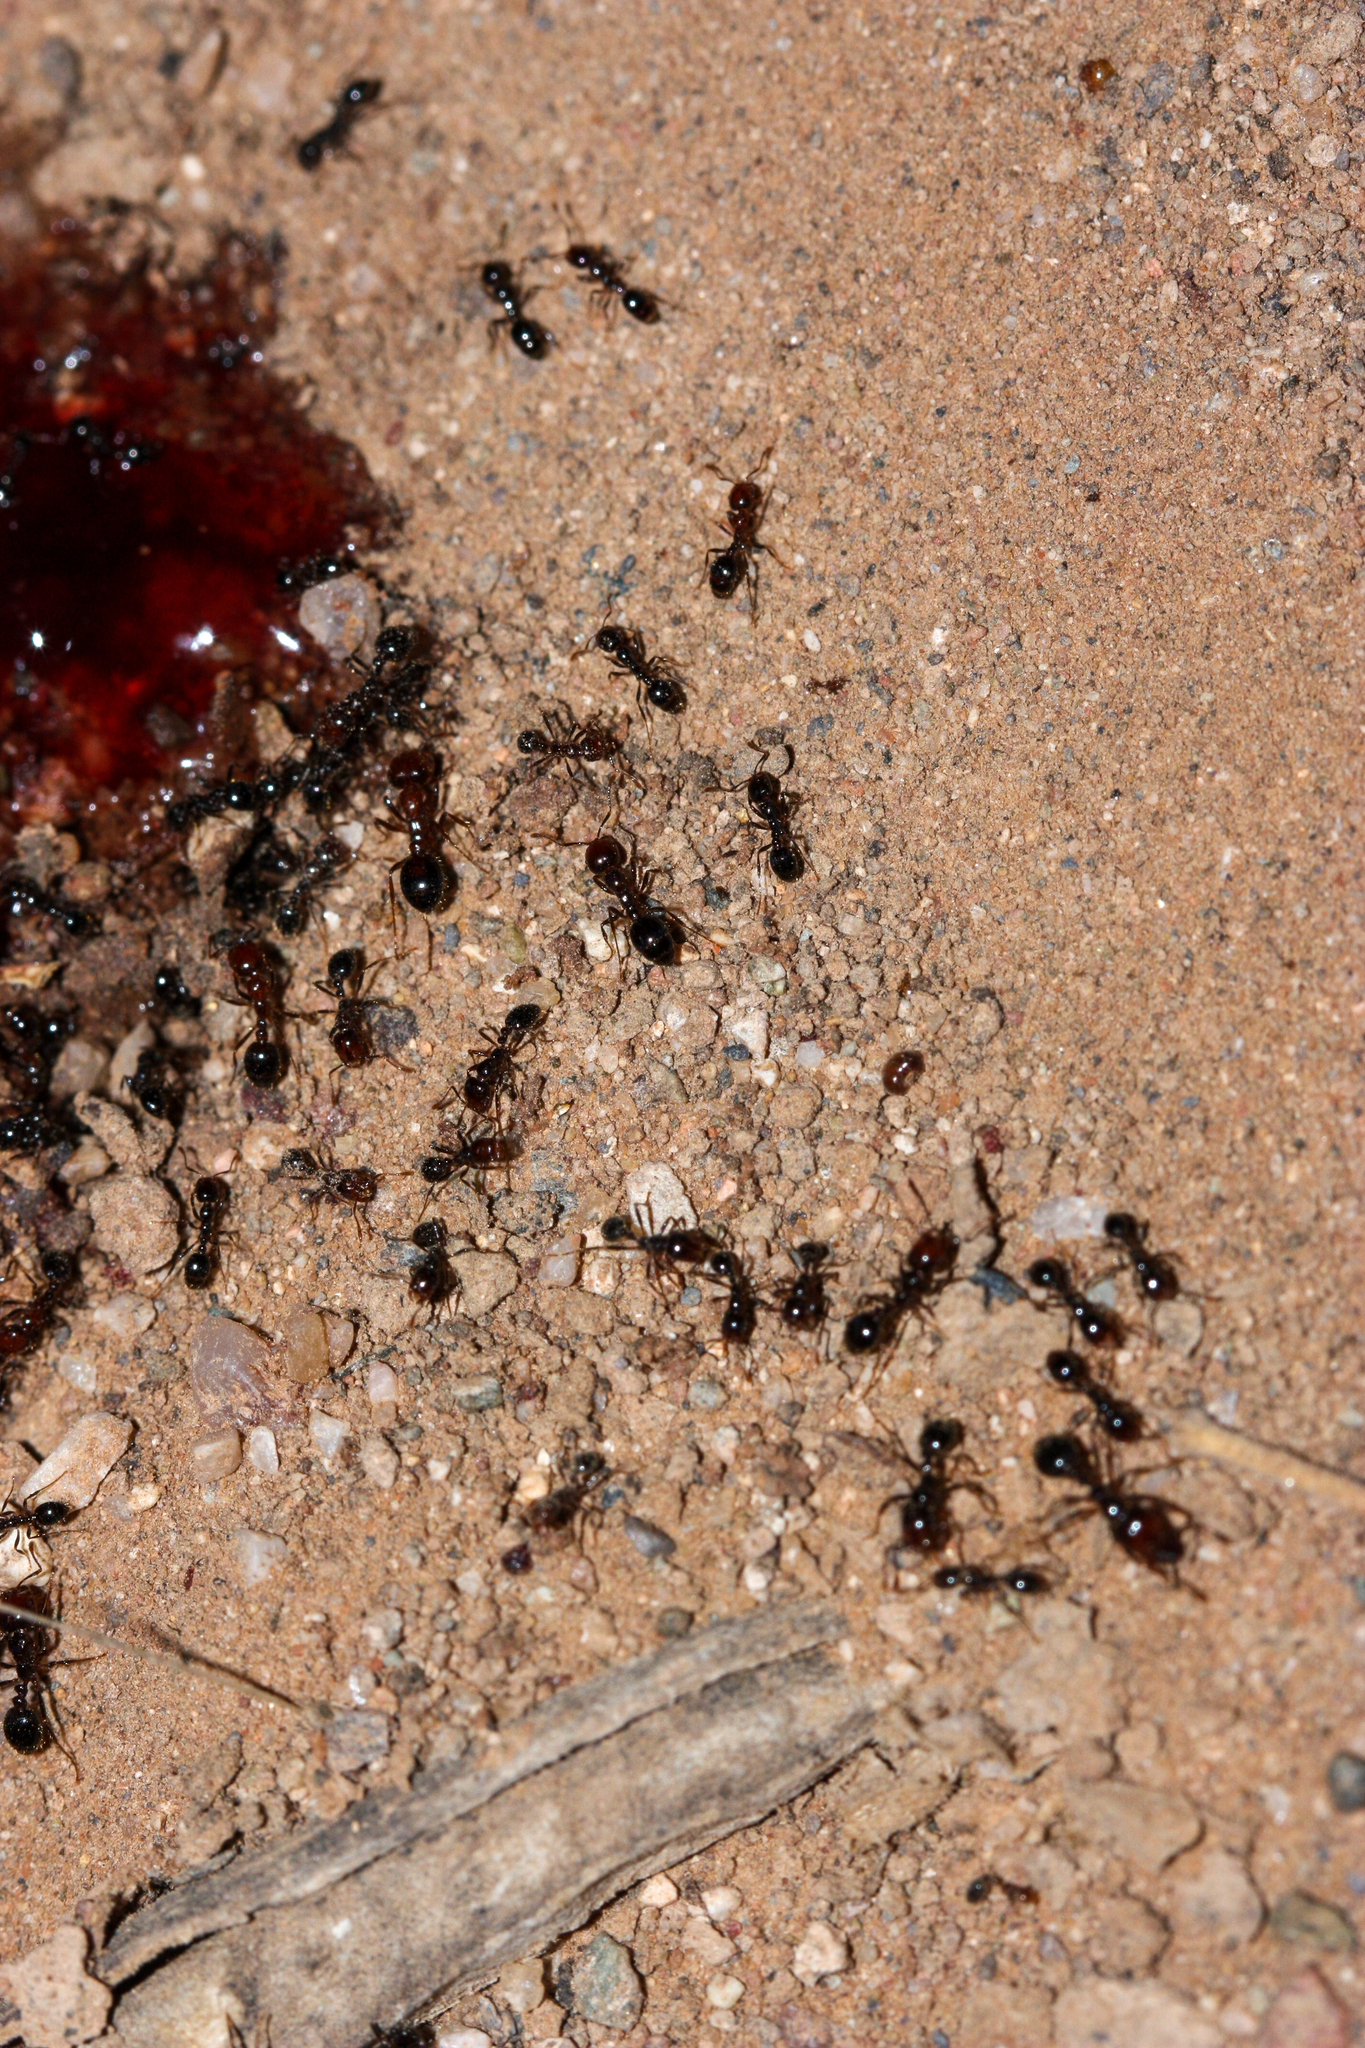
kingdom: Animalia
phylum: Arthropoda
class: Insecta
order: Hymenoptera
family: Formicidae
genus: Solenopsis
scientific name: Solenopsis xyloni
